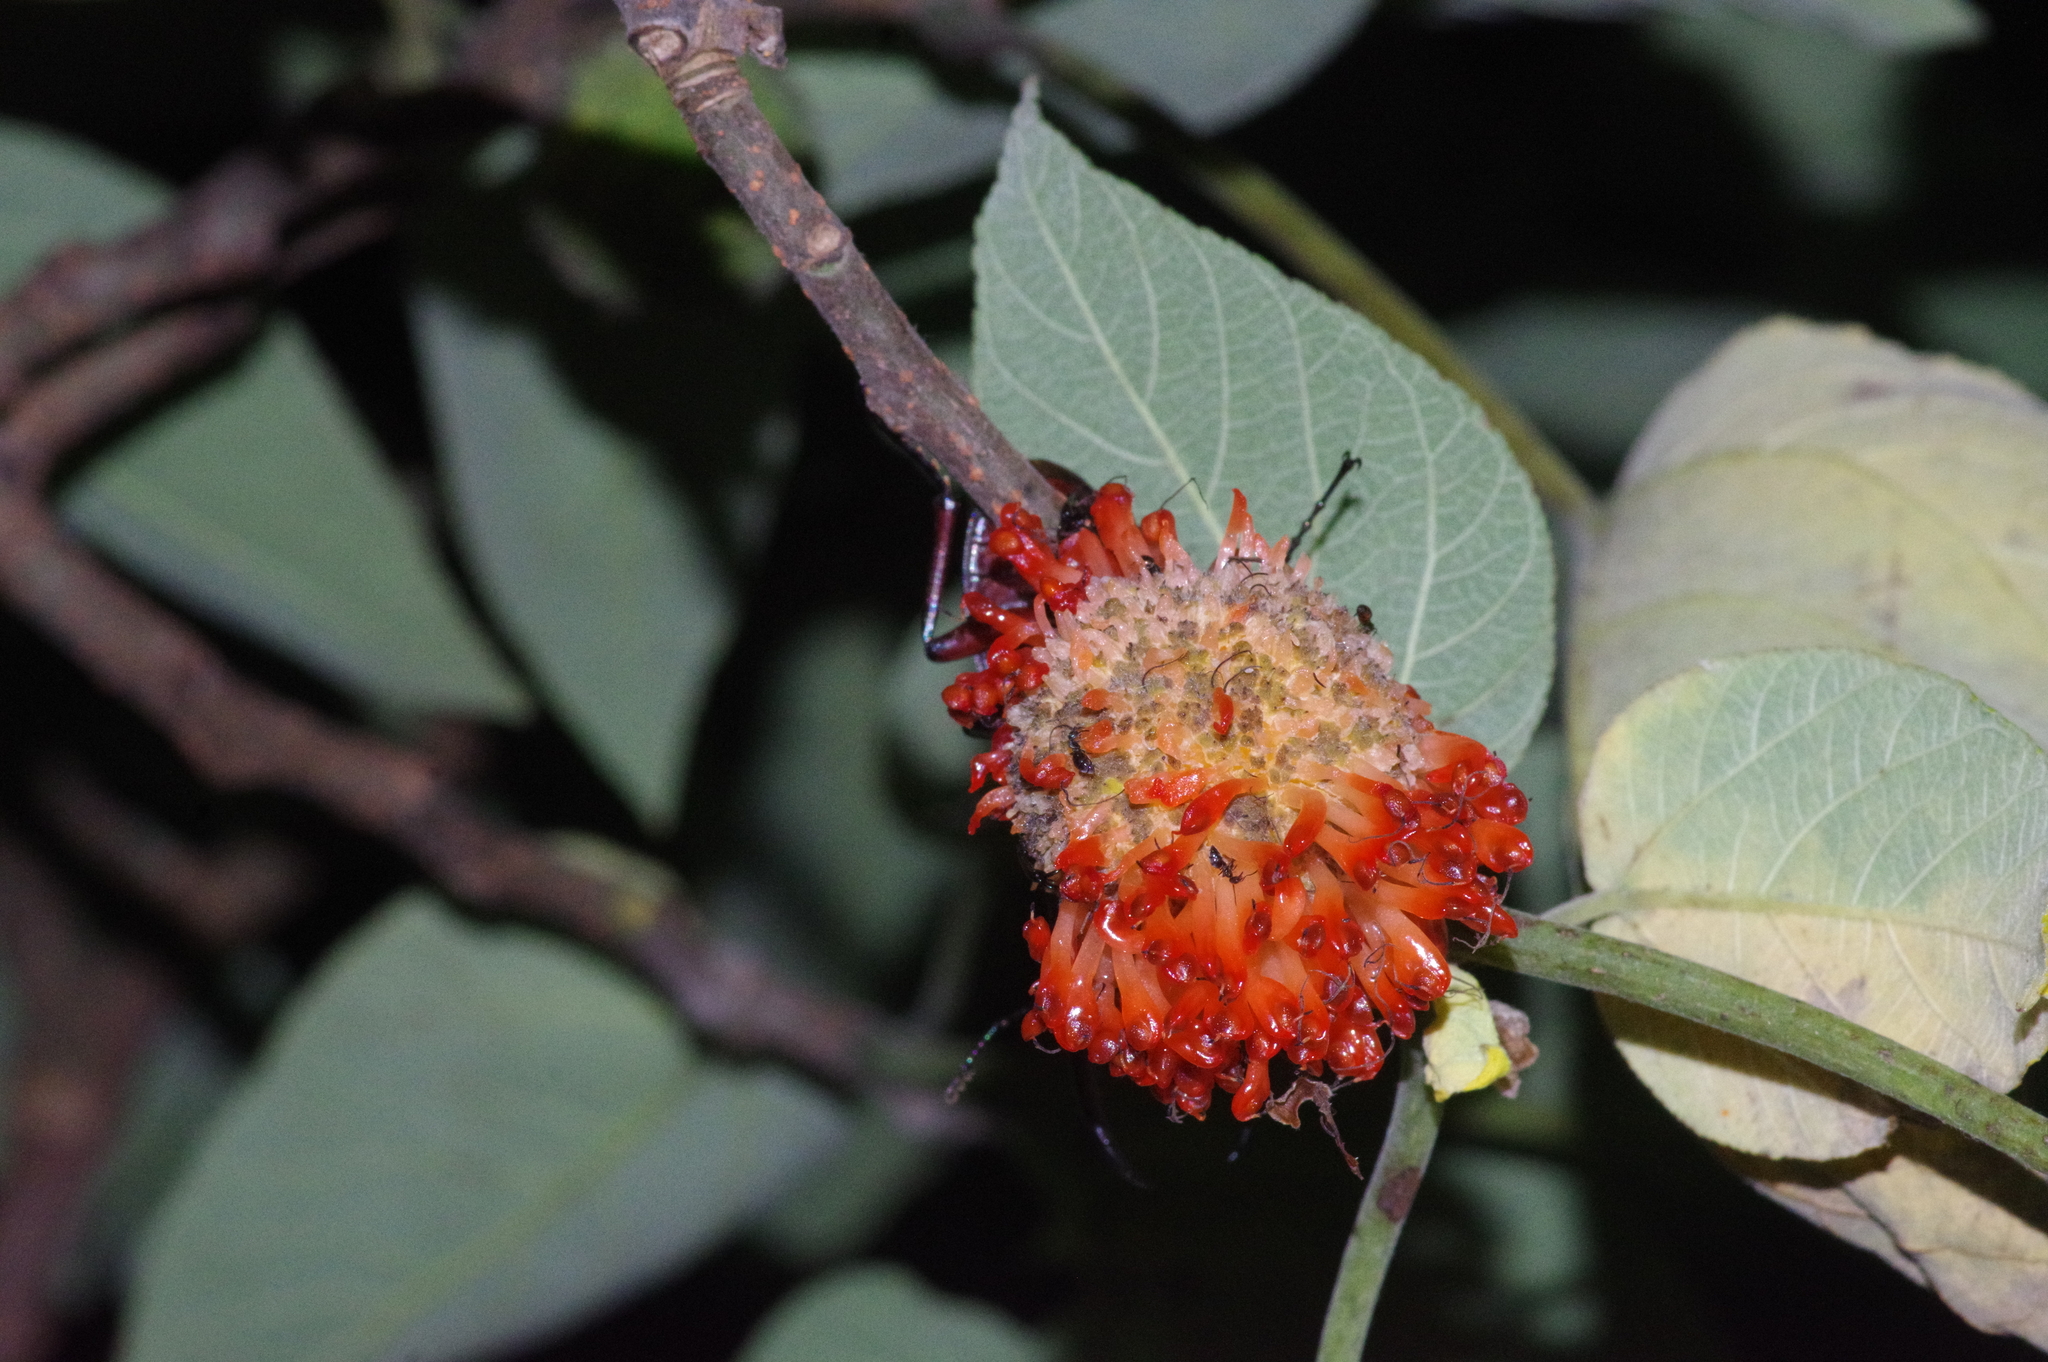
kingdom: Animalia
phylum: Arthropoda
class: Insecta
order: Coleoptera
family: Lucanidae
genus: Prosopocoilus
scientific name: Prosopocoilus dissimilis
